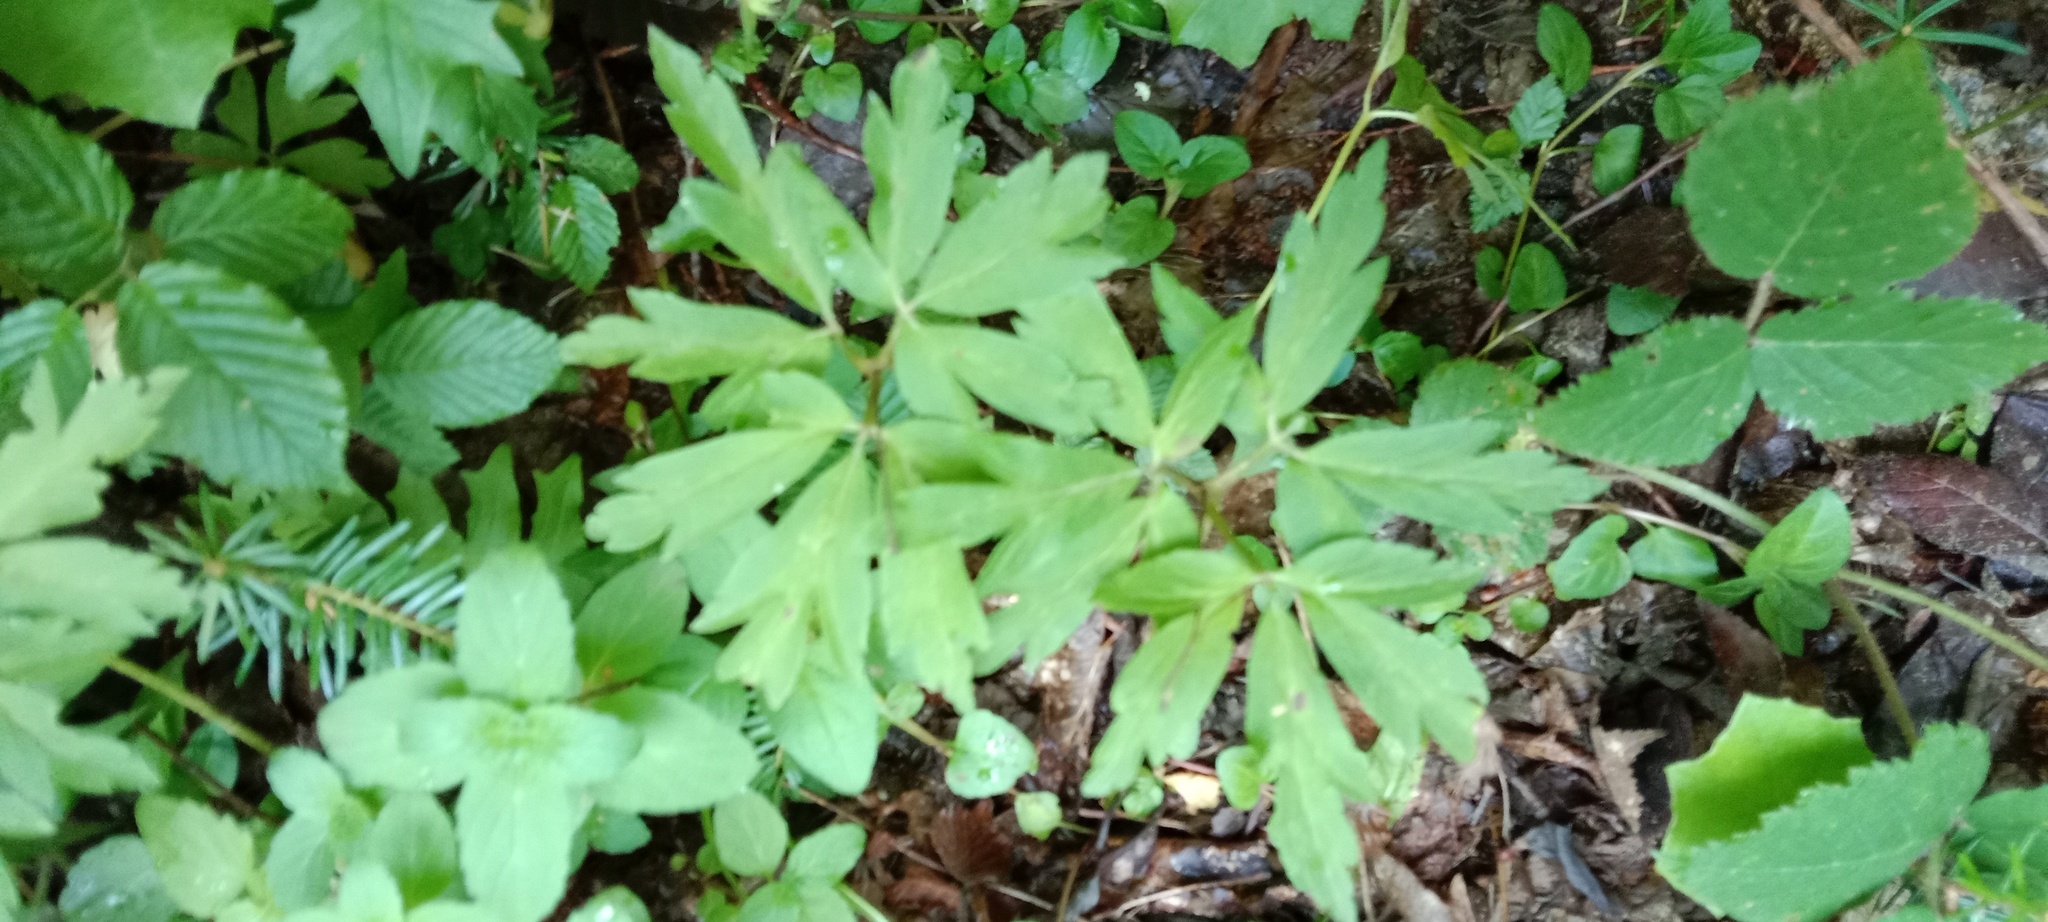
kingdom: Plantae
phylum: Tracheophyta
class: Magnoliopsida
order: Ranunculales
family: Ranunculaceae
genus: Anemone
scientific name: Anemone nemorosa
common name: Wood anemone
